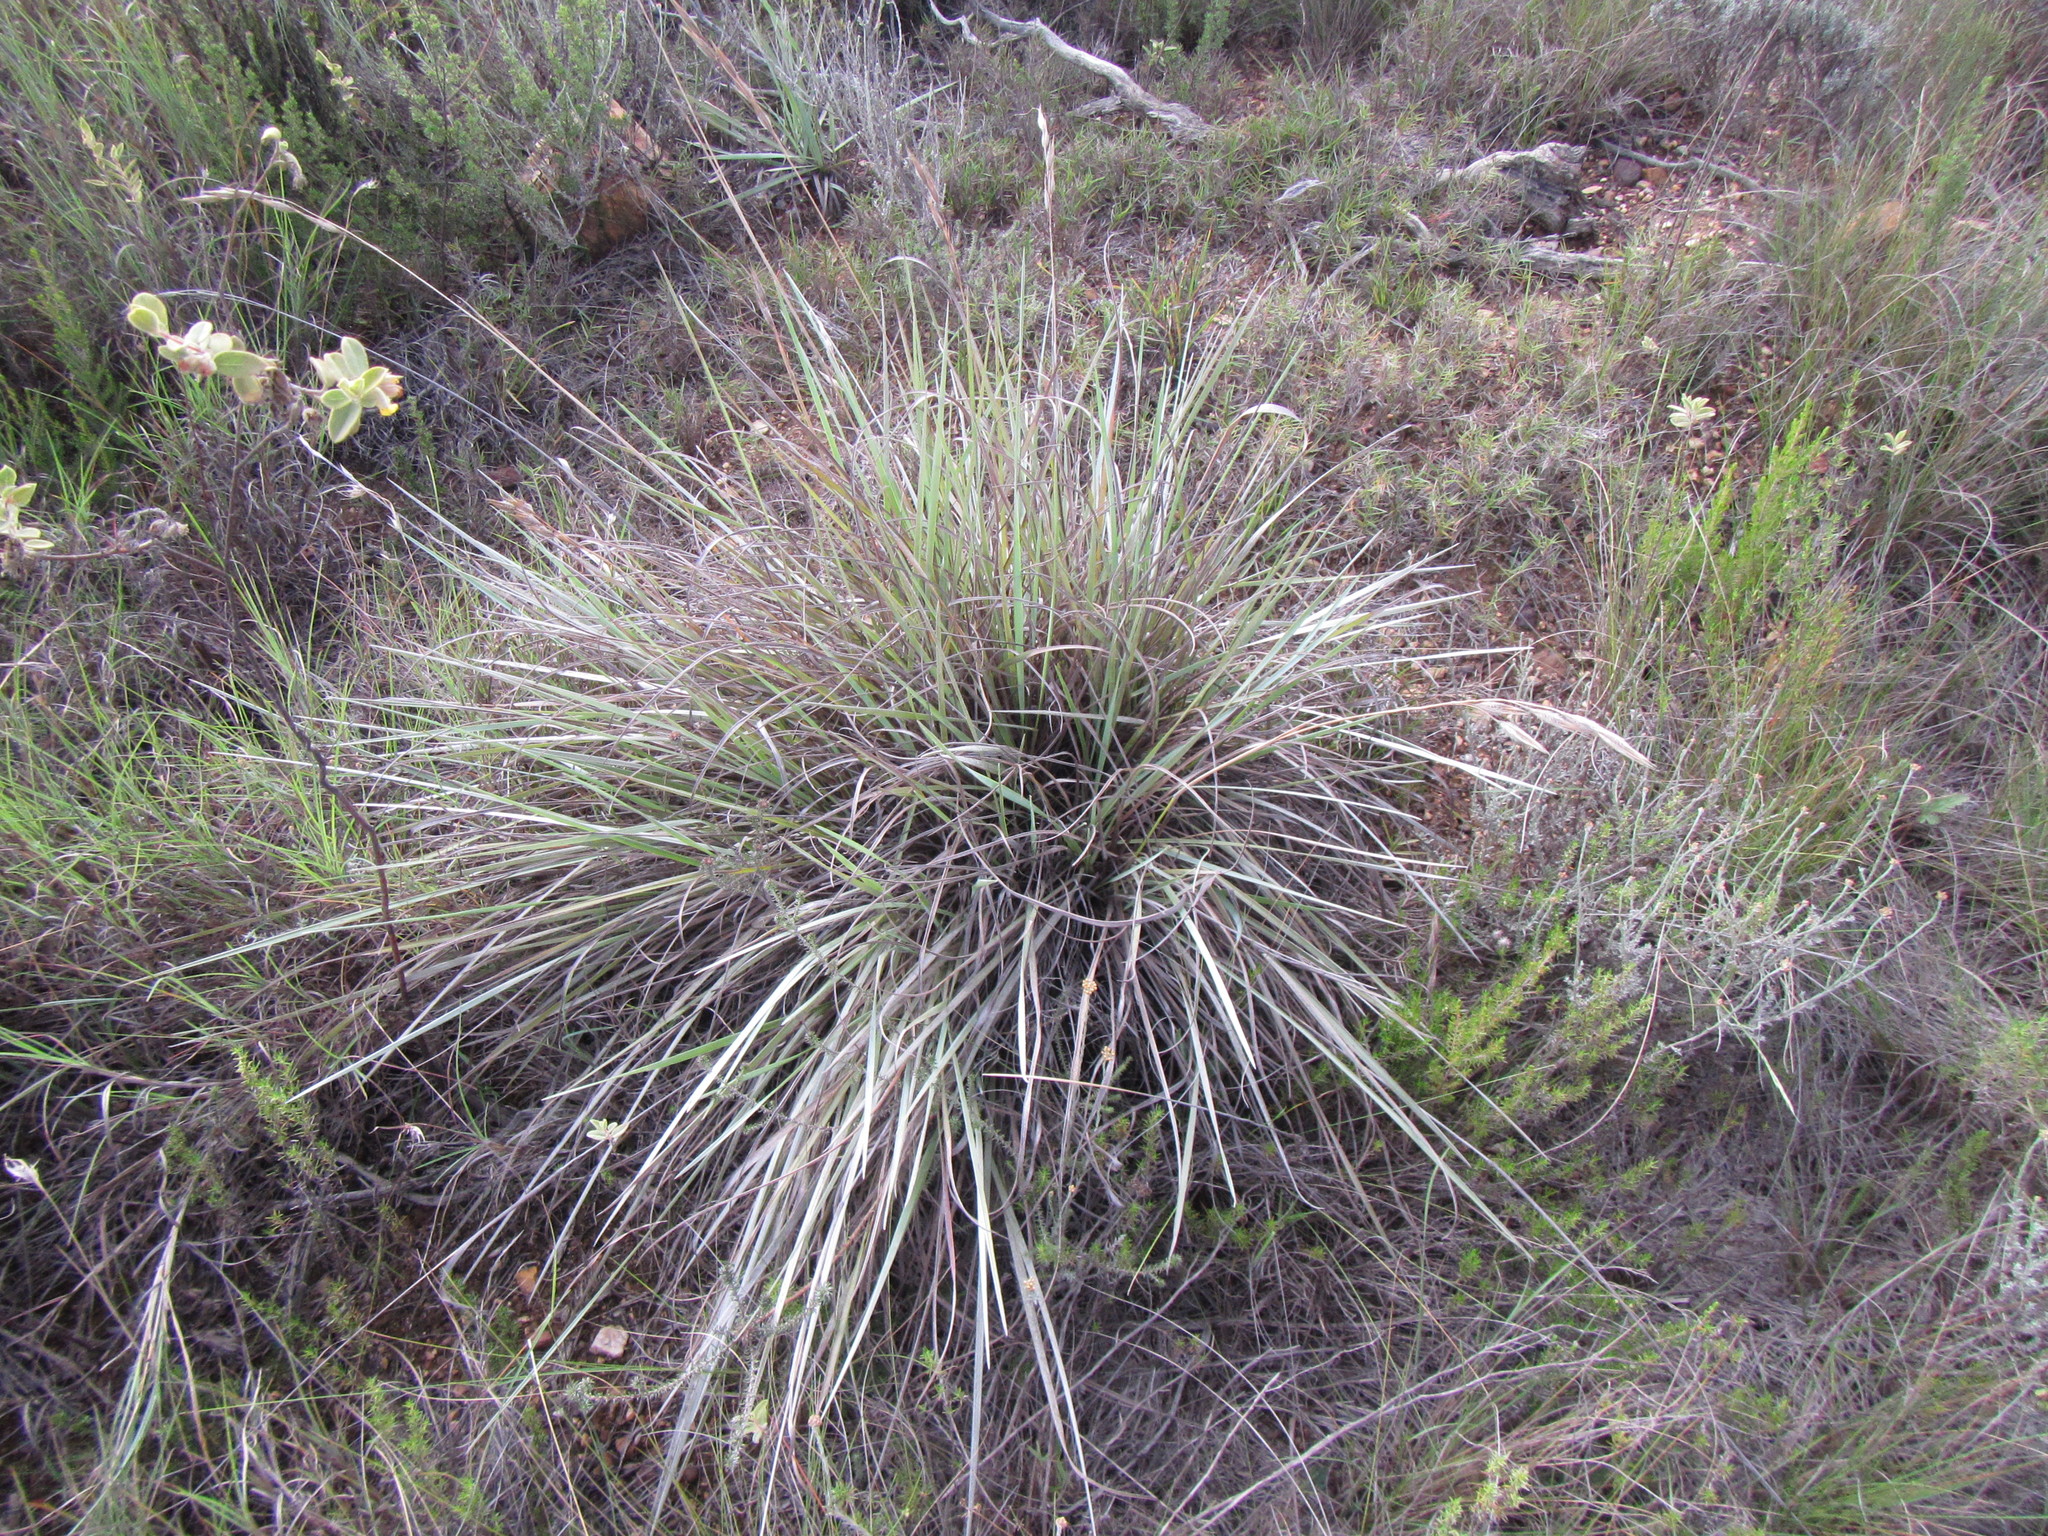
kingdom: Plantae
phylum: Tracheophyta
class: Liliopsida
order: Poales
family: Poaceae
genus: Tristachya
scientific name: Tristachya leucothrix
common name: Trident grass
